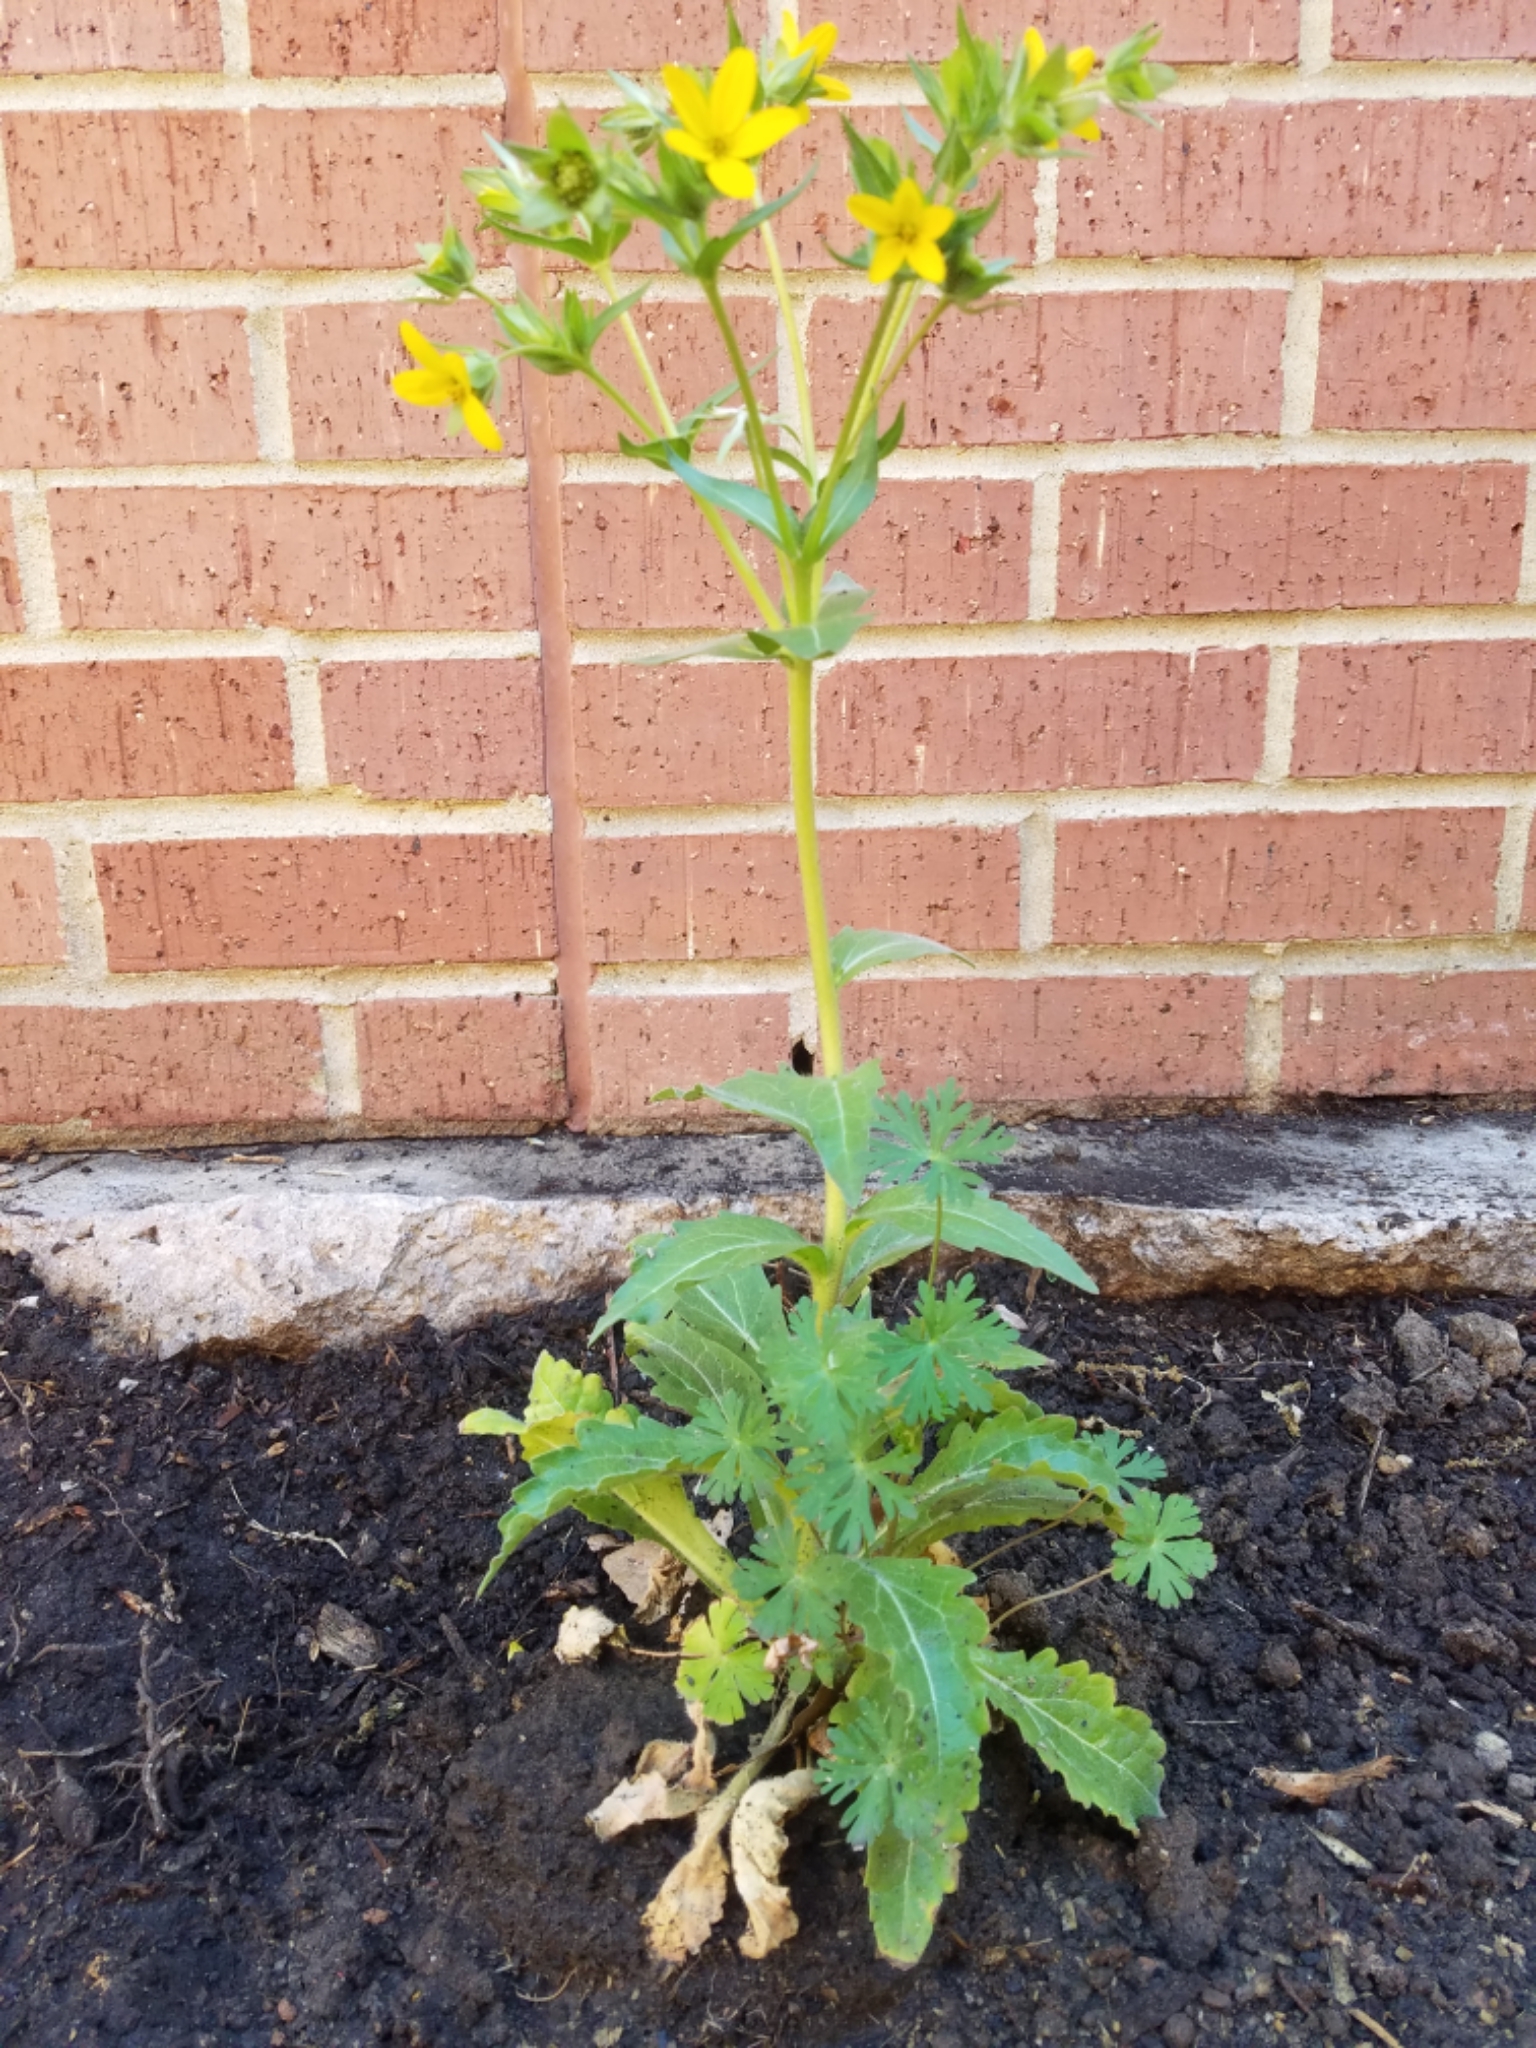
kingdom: Plantae
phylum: Tracheophyta
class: Magnoliopsida
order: Asterales
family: Asteraceae
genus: Lindheimera
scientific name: Lindheimera texana
